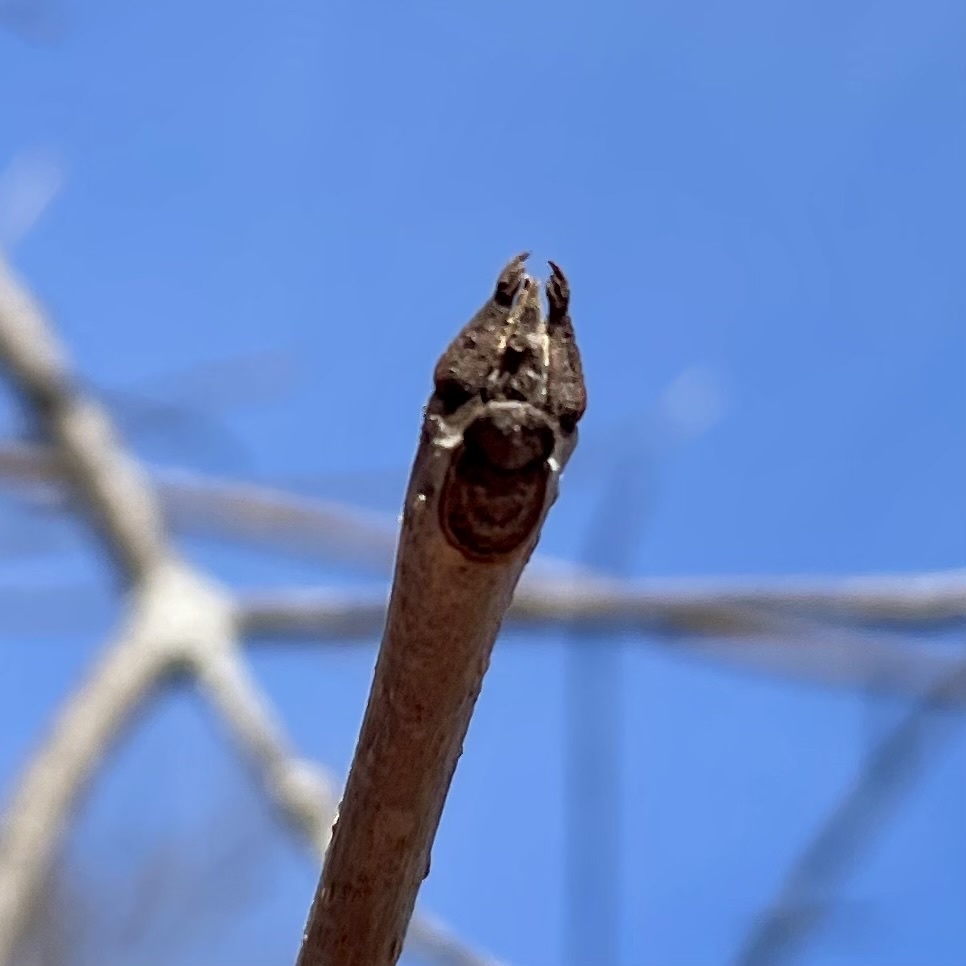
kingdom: Plantae
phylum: Tracheophyta
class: Magnoliopsida
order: Lamiales
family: Oleaceae
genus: Fraxinus
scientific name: Fraxinus nigra
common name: Black ash
